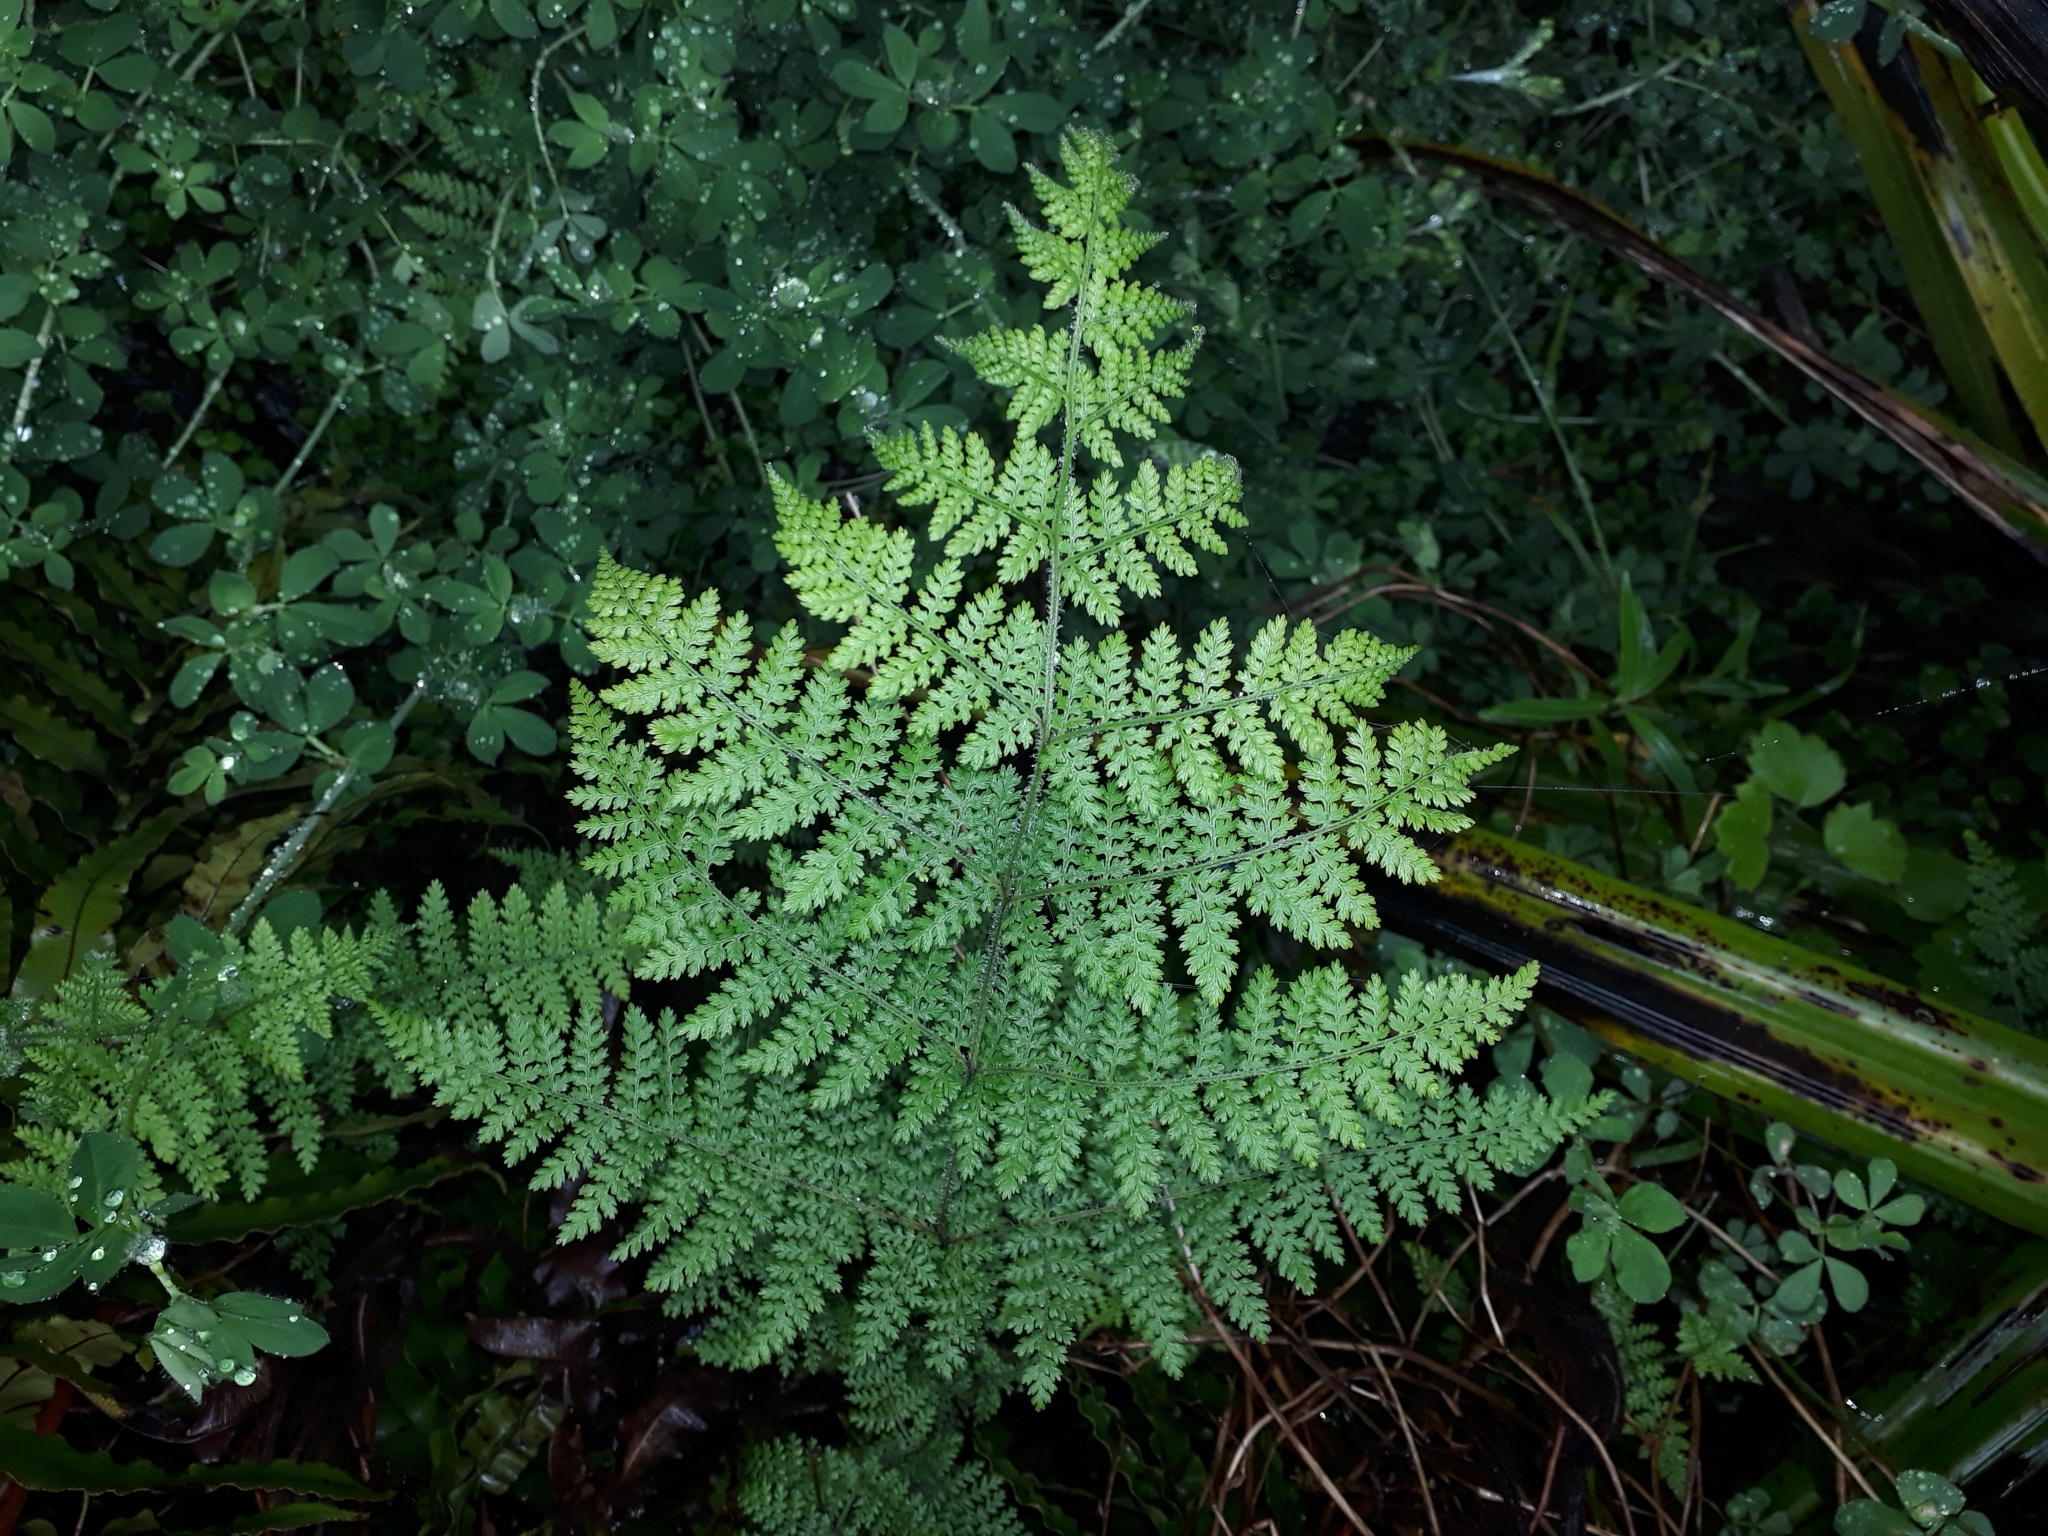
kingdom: Plantae
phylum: Tracheophyta
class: Polypodiopsida
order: Polypodiales
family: Dennstaedtiaceae
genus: Hypolepis
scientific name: Hypolepis millefolium
